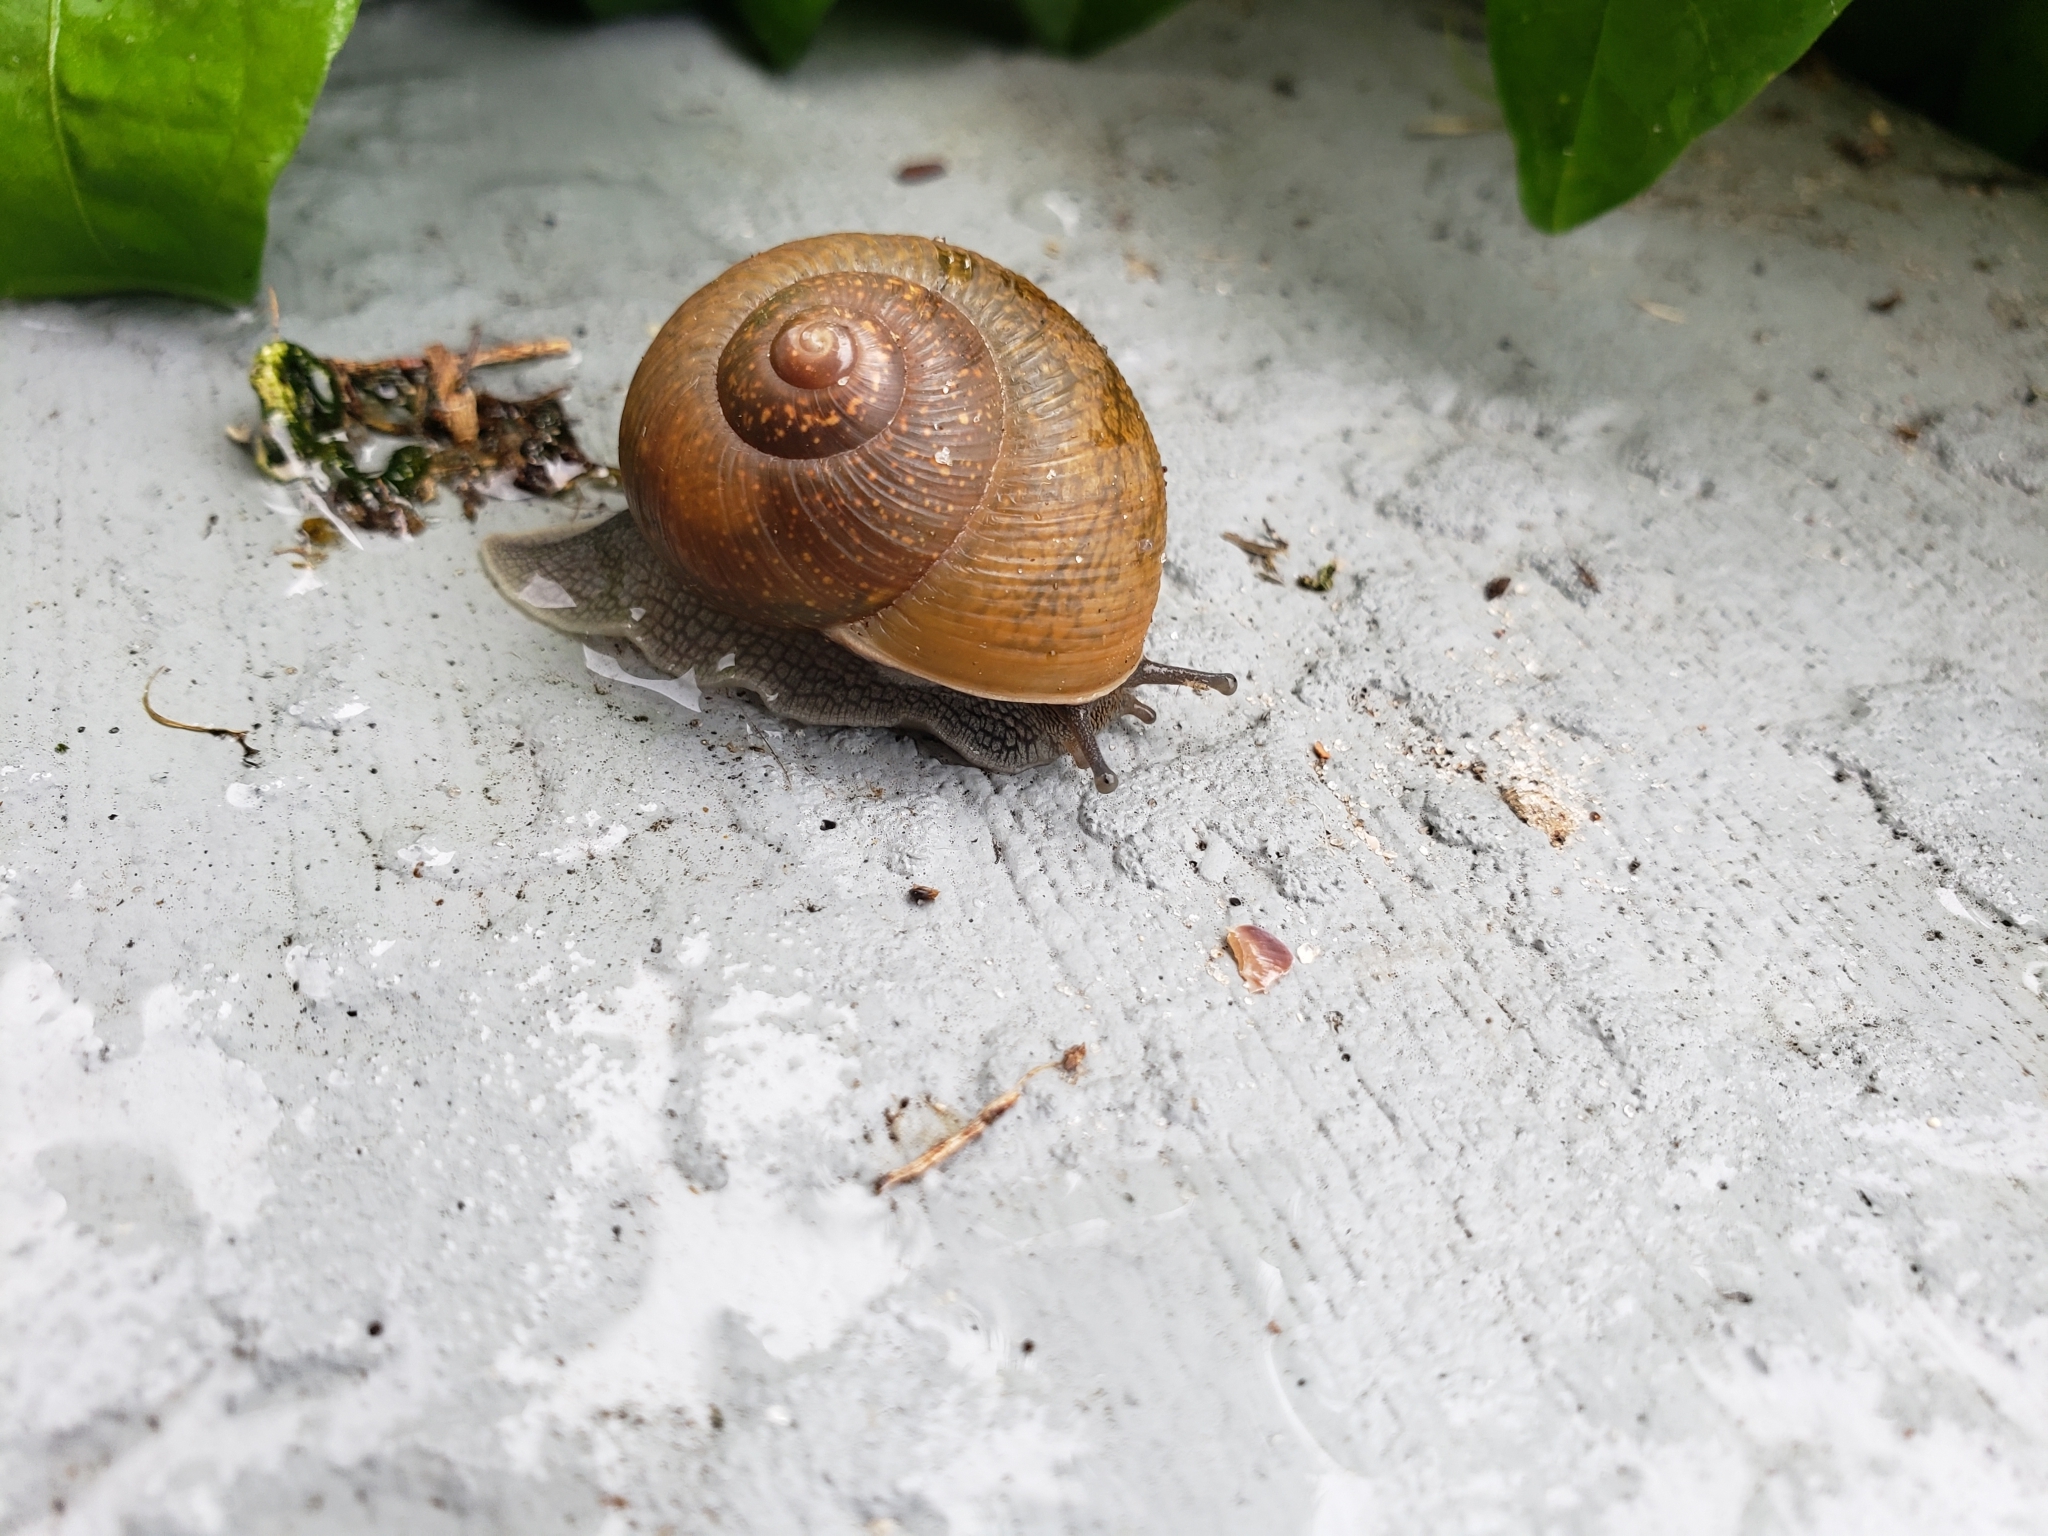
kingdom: Animalia
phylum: Mollusca
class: Gastropoda
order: Stylommatophora
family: Zachrysiidae
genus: Zachrysia
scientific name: Zachrysia provisoria
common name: Garden zachrysia
